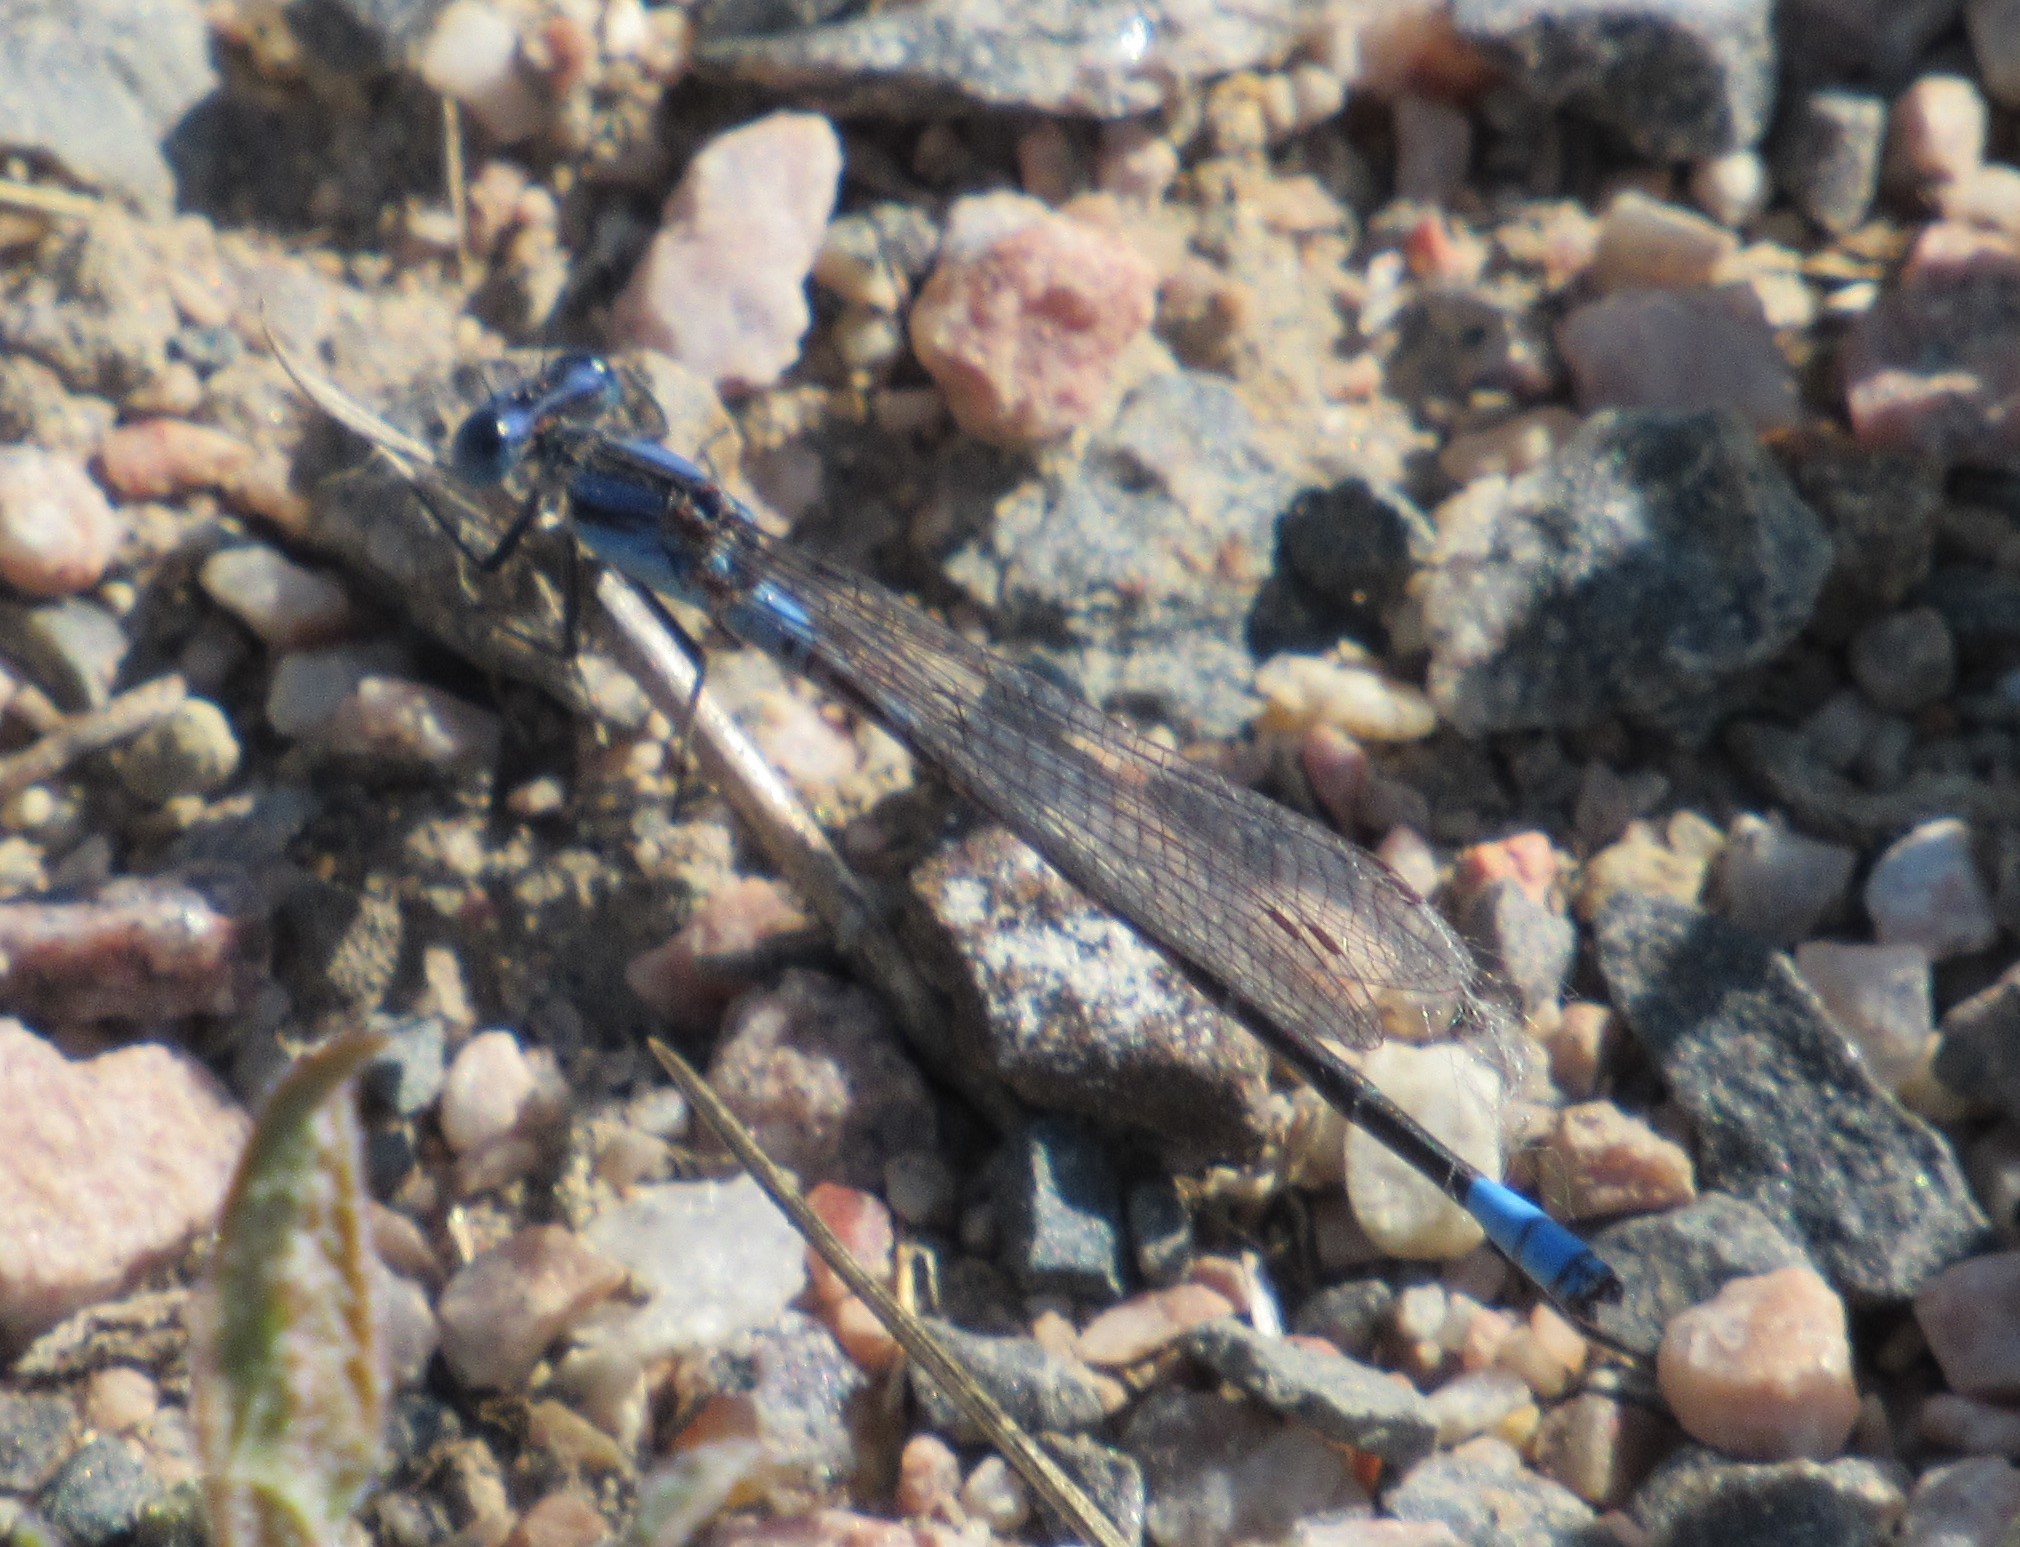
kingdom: Animalia
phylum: Arthropoda
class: Insecta
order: Odonata
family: Coenagrionidae
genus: Argia
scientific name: Argia alberta
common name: Paiute dancer
